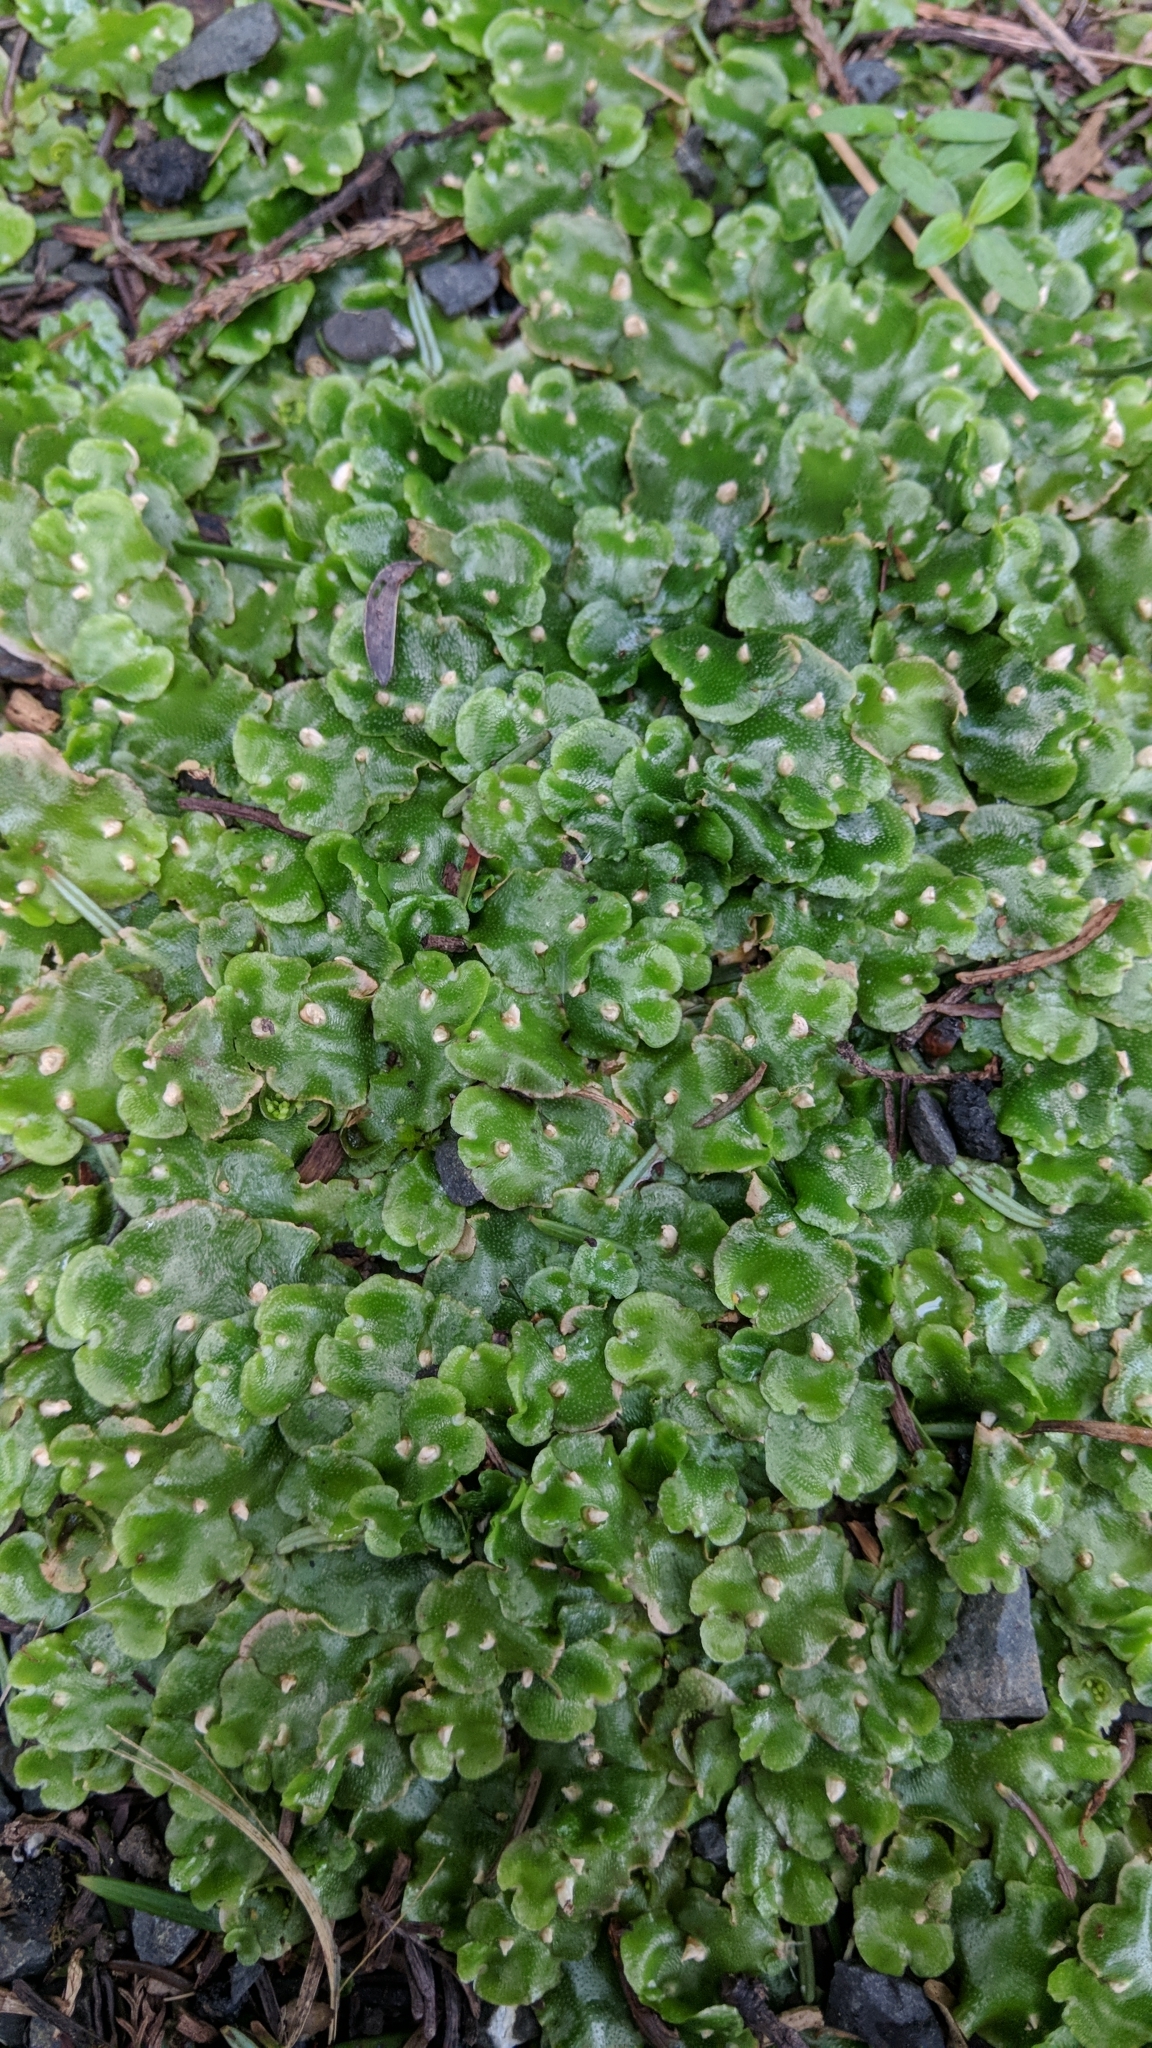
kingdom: Plantae
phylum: Marchantiophyta
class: Marchantiopsida
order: Lunulariales
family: Lunulariaceae
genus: Lunularia
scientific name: Lunularia cruciata
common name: Crescent-cup liverwort
